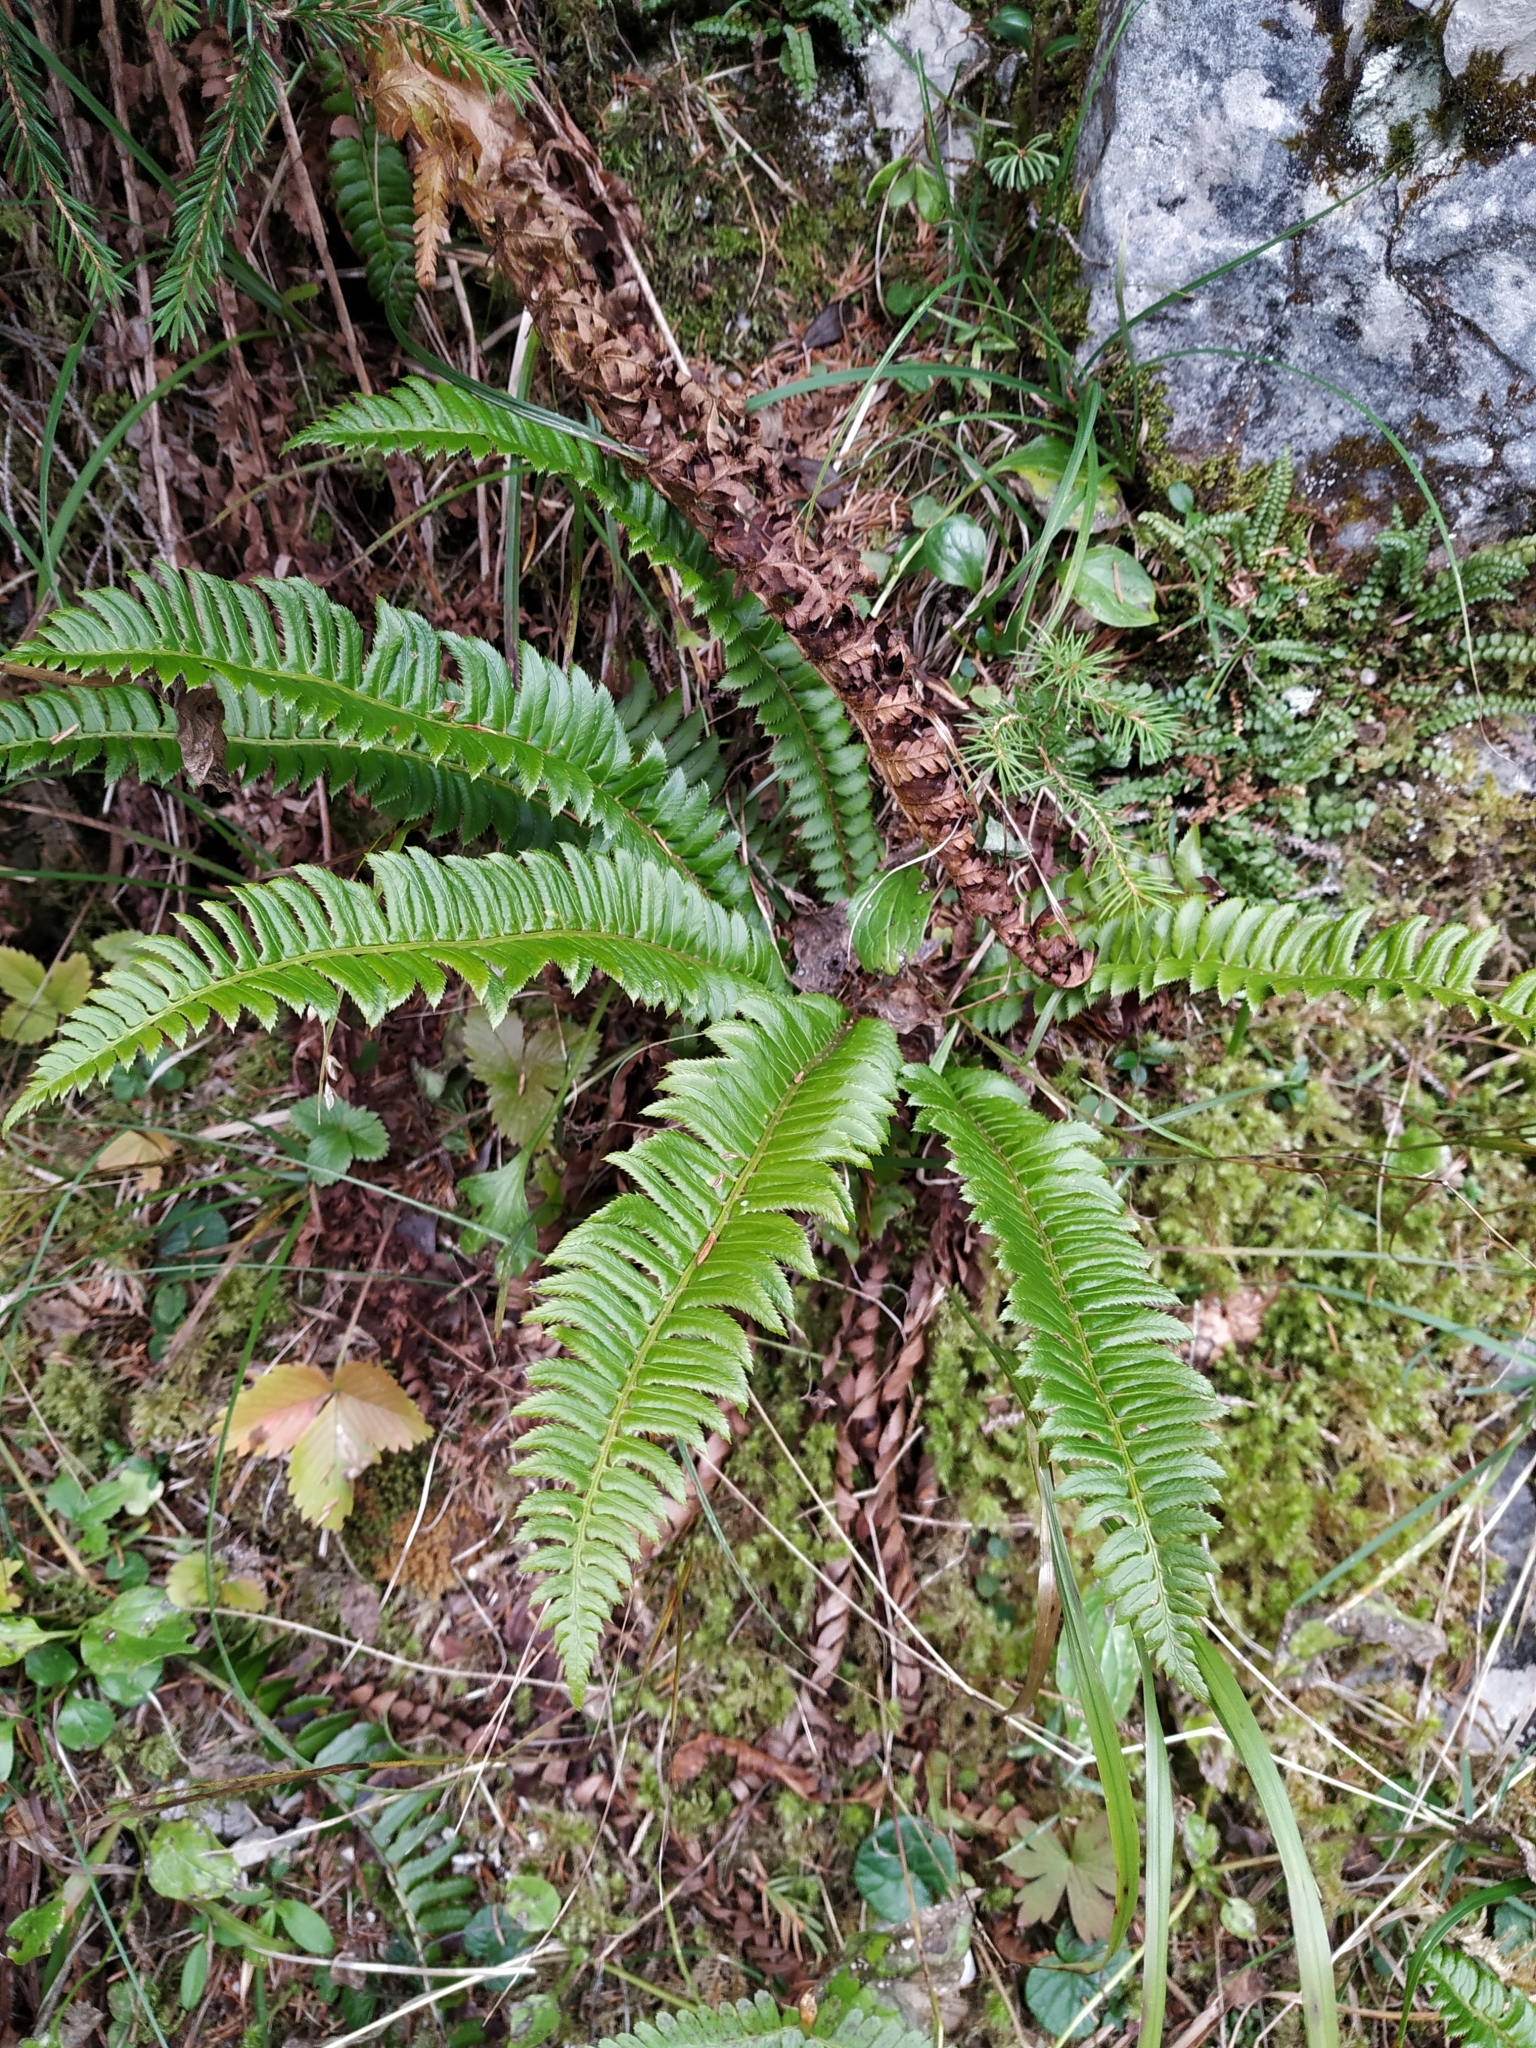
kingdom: Plantae
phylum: Tracheophyta
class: Polypodiopsida
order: Polypodiales
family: Dryopteridaceae
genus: Polystichum
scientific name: Polystichum lonchitis
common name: Holly fern
